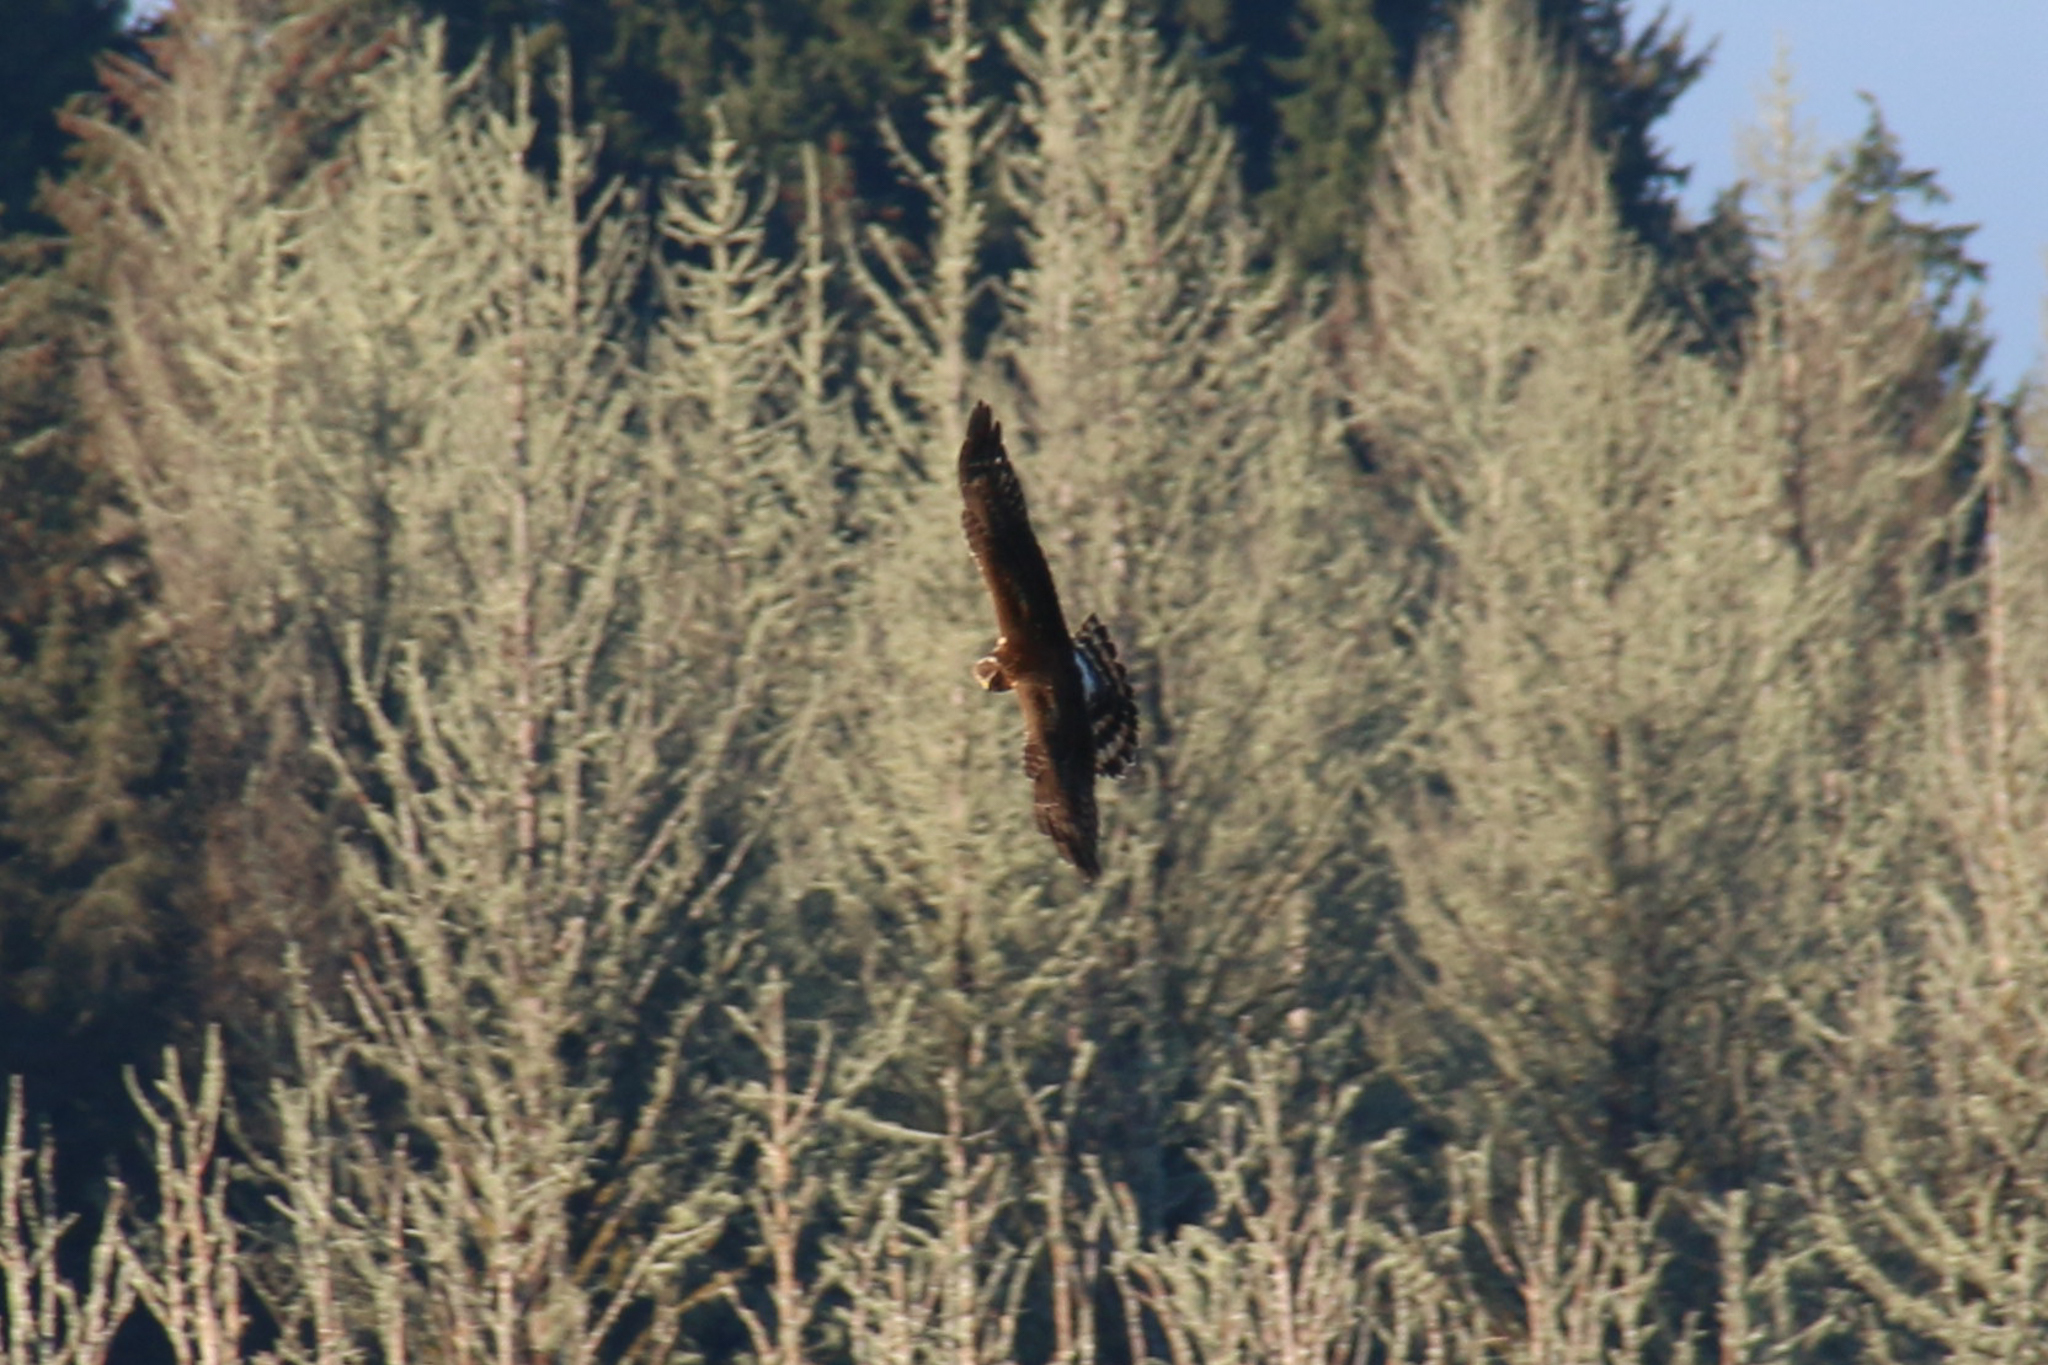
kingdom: Animalia
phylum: Chordata
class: Aves
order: Accipitriformes
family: Accipitridae
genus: Circus
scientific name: Circus cyaneus
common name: Hen harrier
